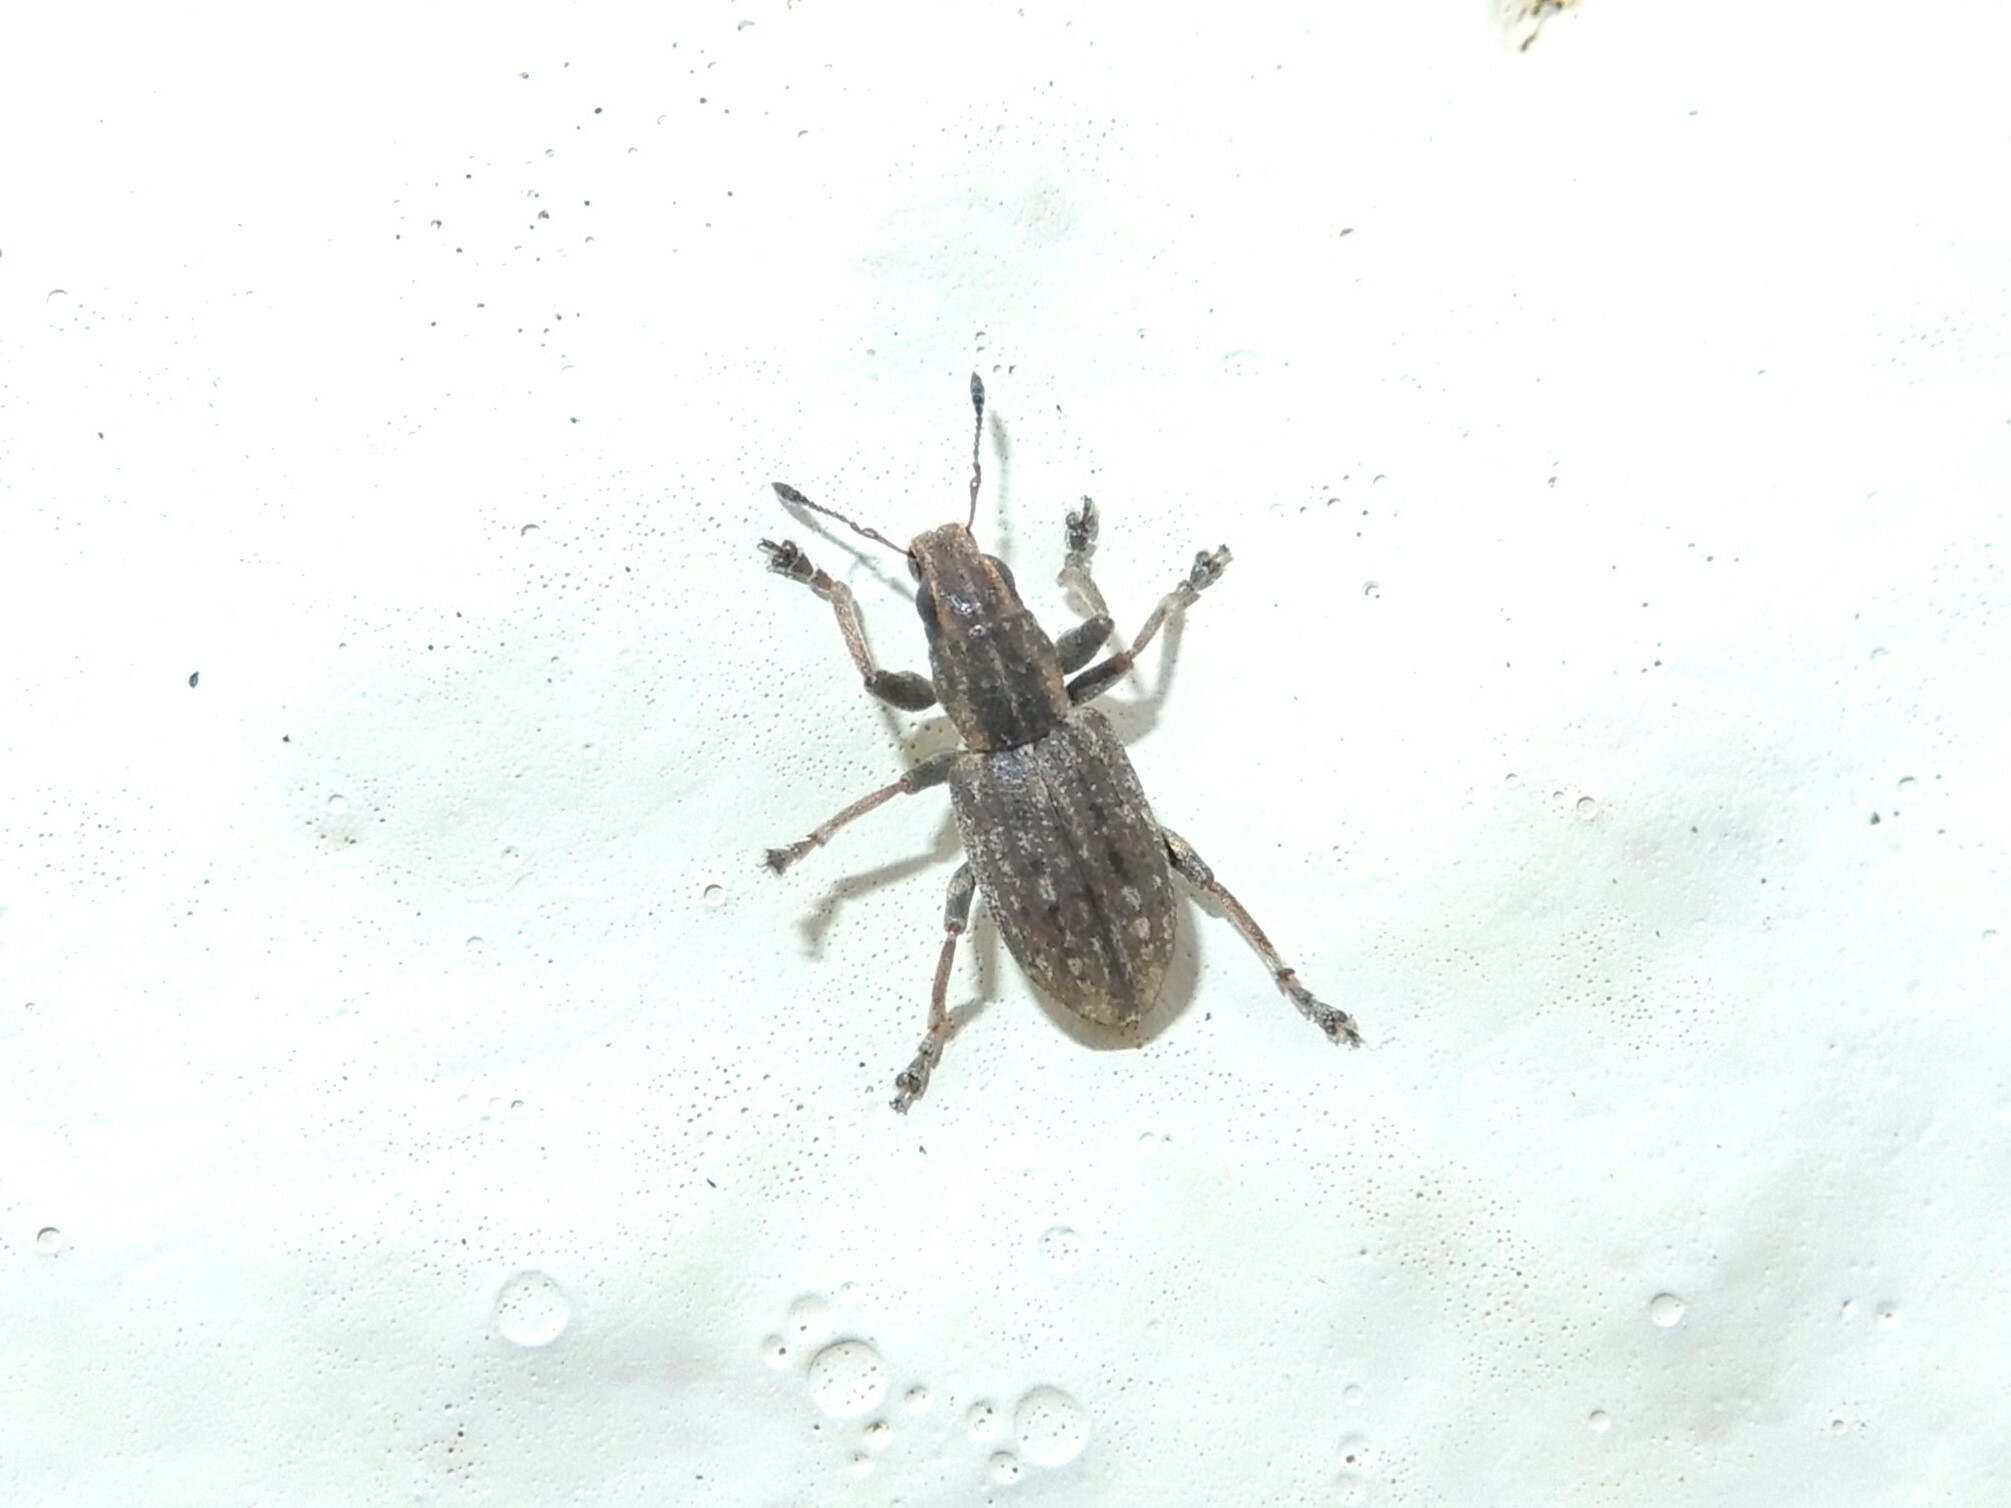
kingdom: Animalia
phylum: Arthropoda
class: Insecta
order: Coleoptera
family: Curculionidae
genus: Sitona
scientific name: Sitona obsoletus
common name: Weevil
